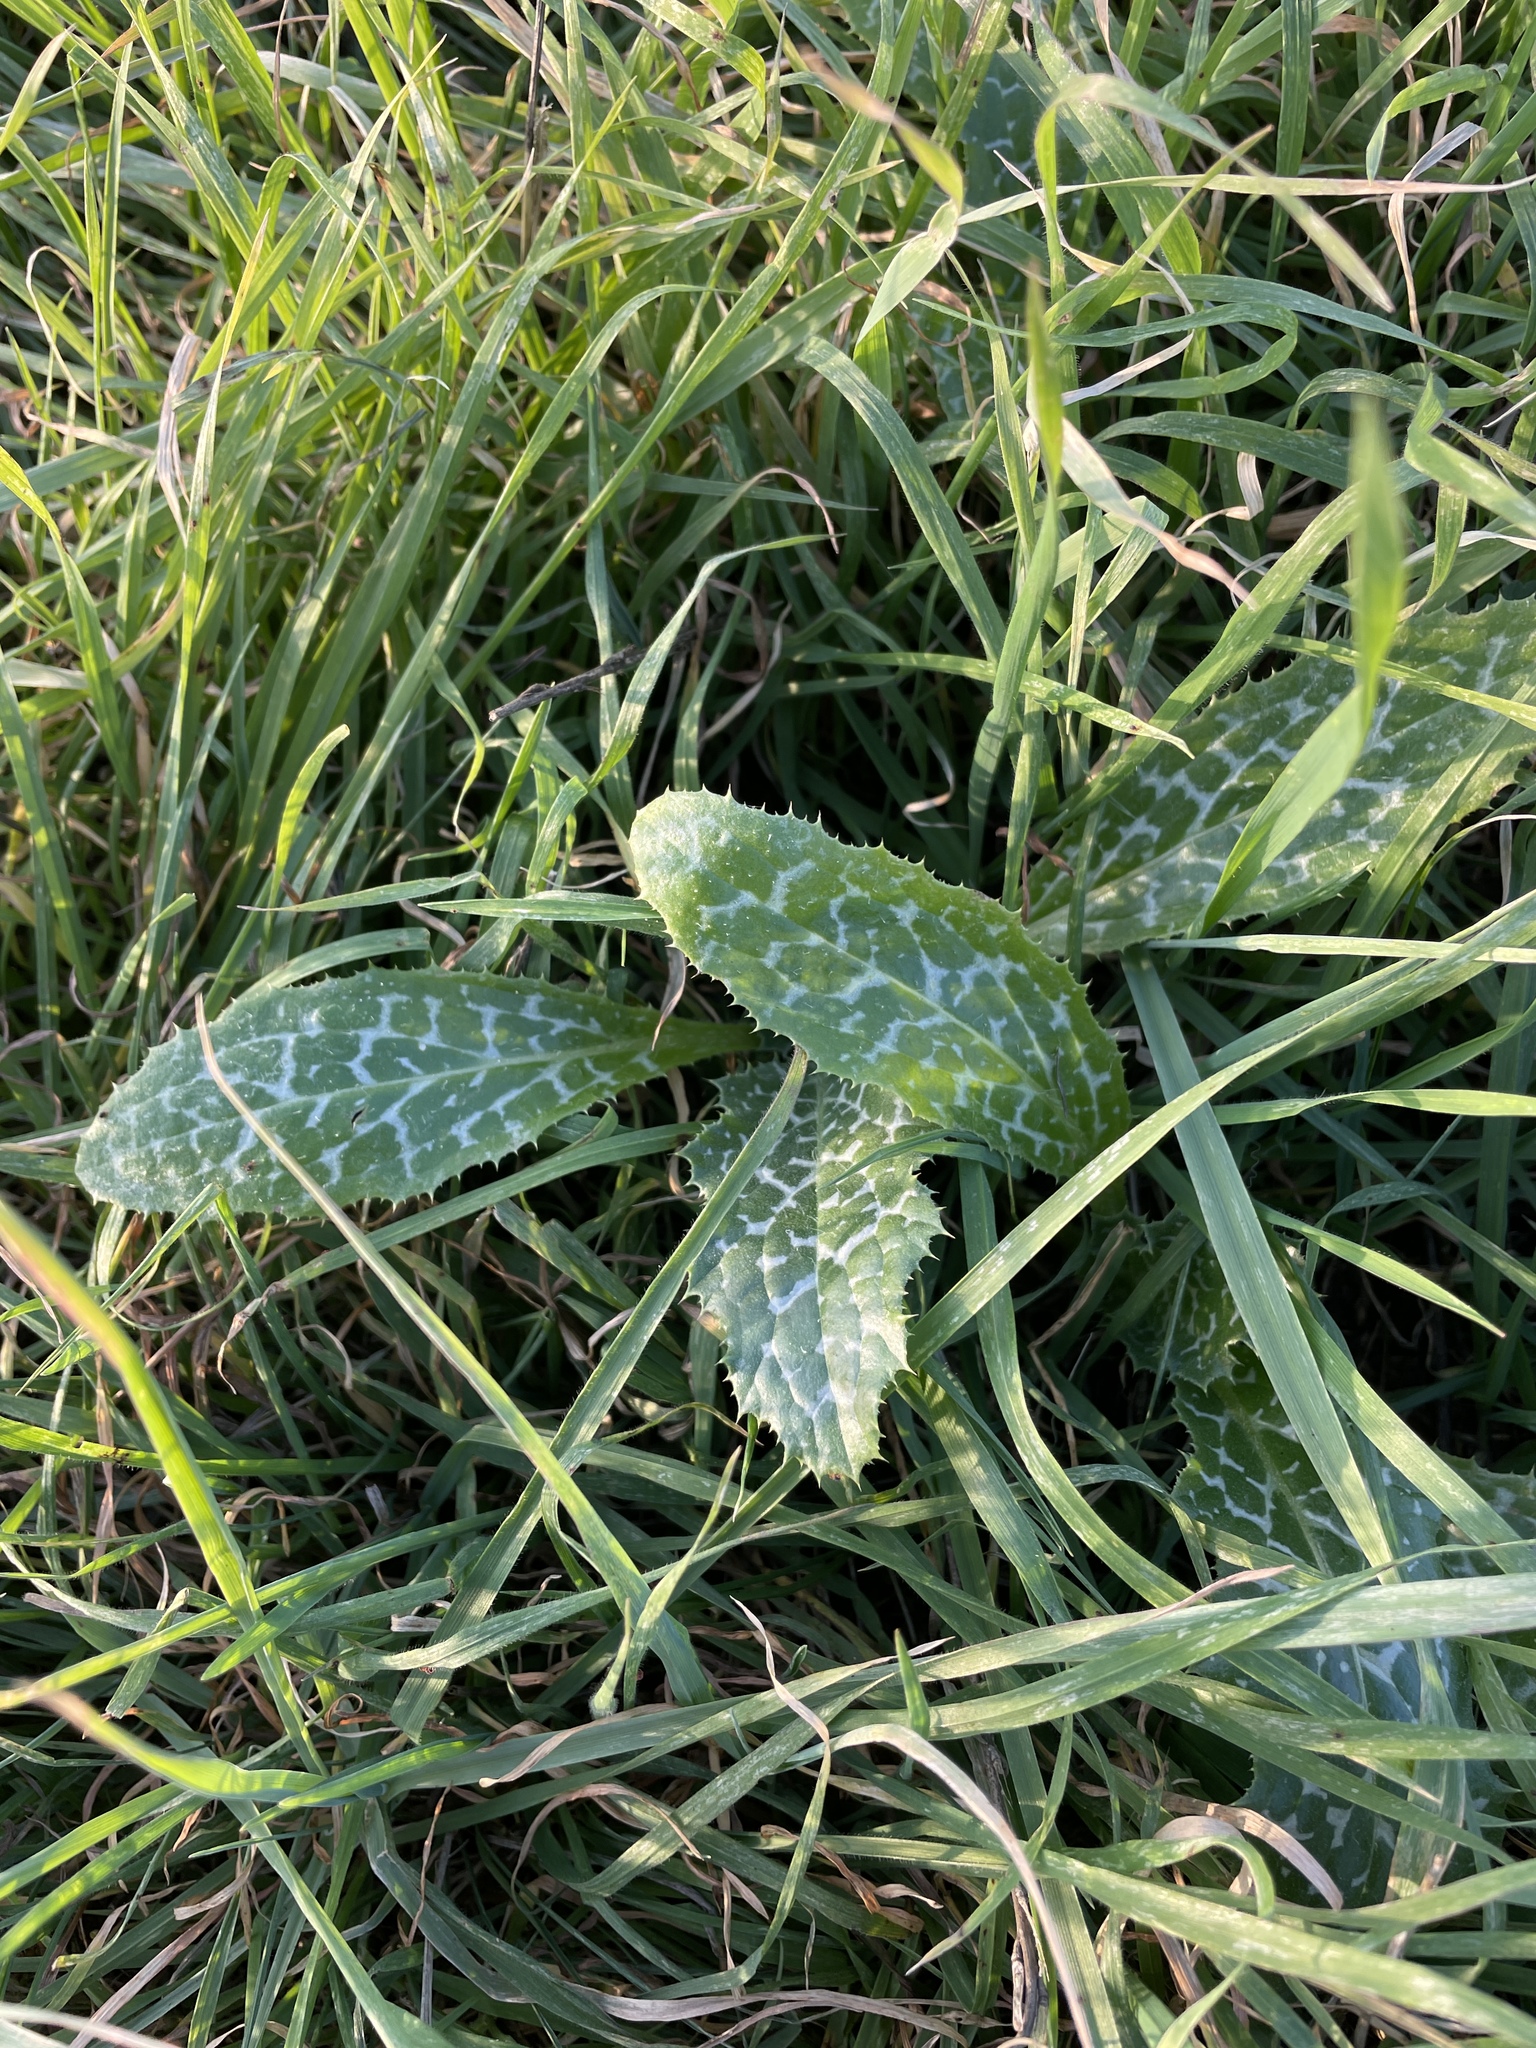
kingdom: Plantae
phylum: Tracheophyta
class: Magnoliopsida
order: Asterales
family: Asteraceae
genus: Silybum
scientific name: Silybum marianum
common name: Milk thistle
